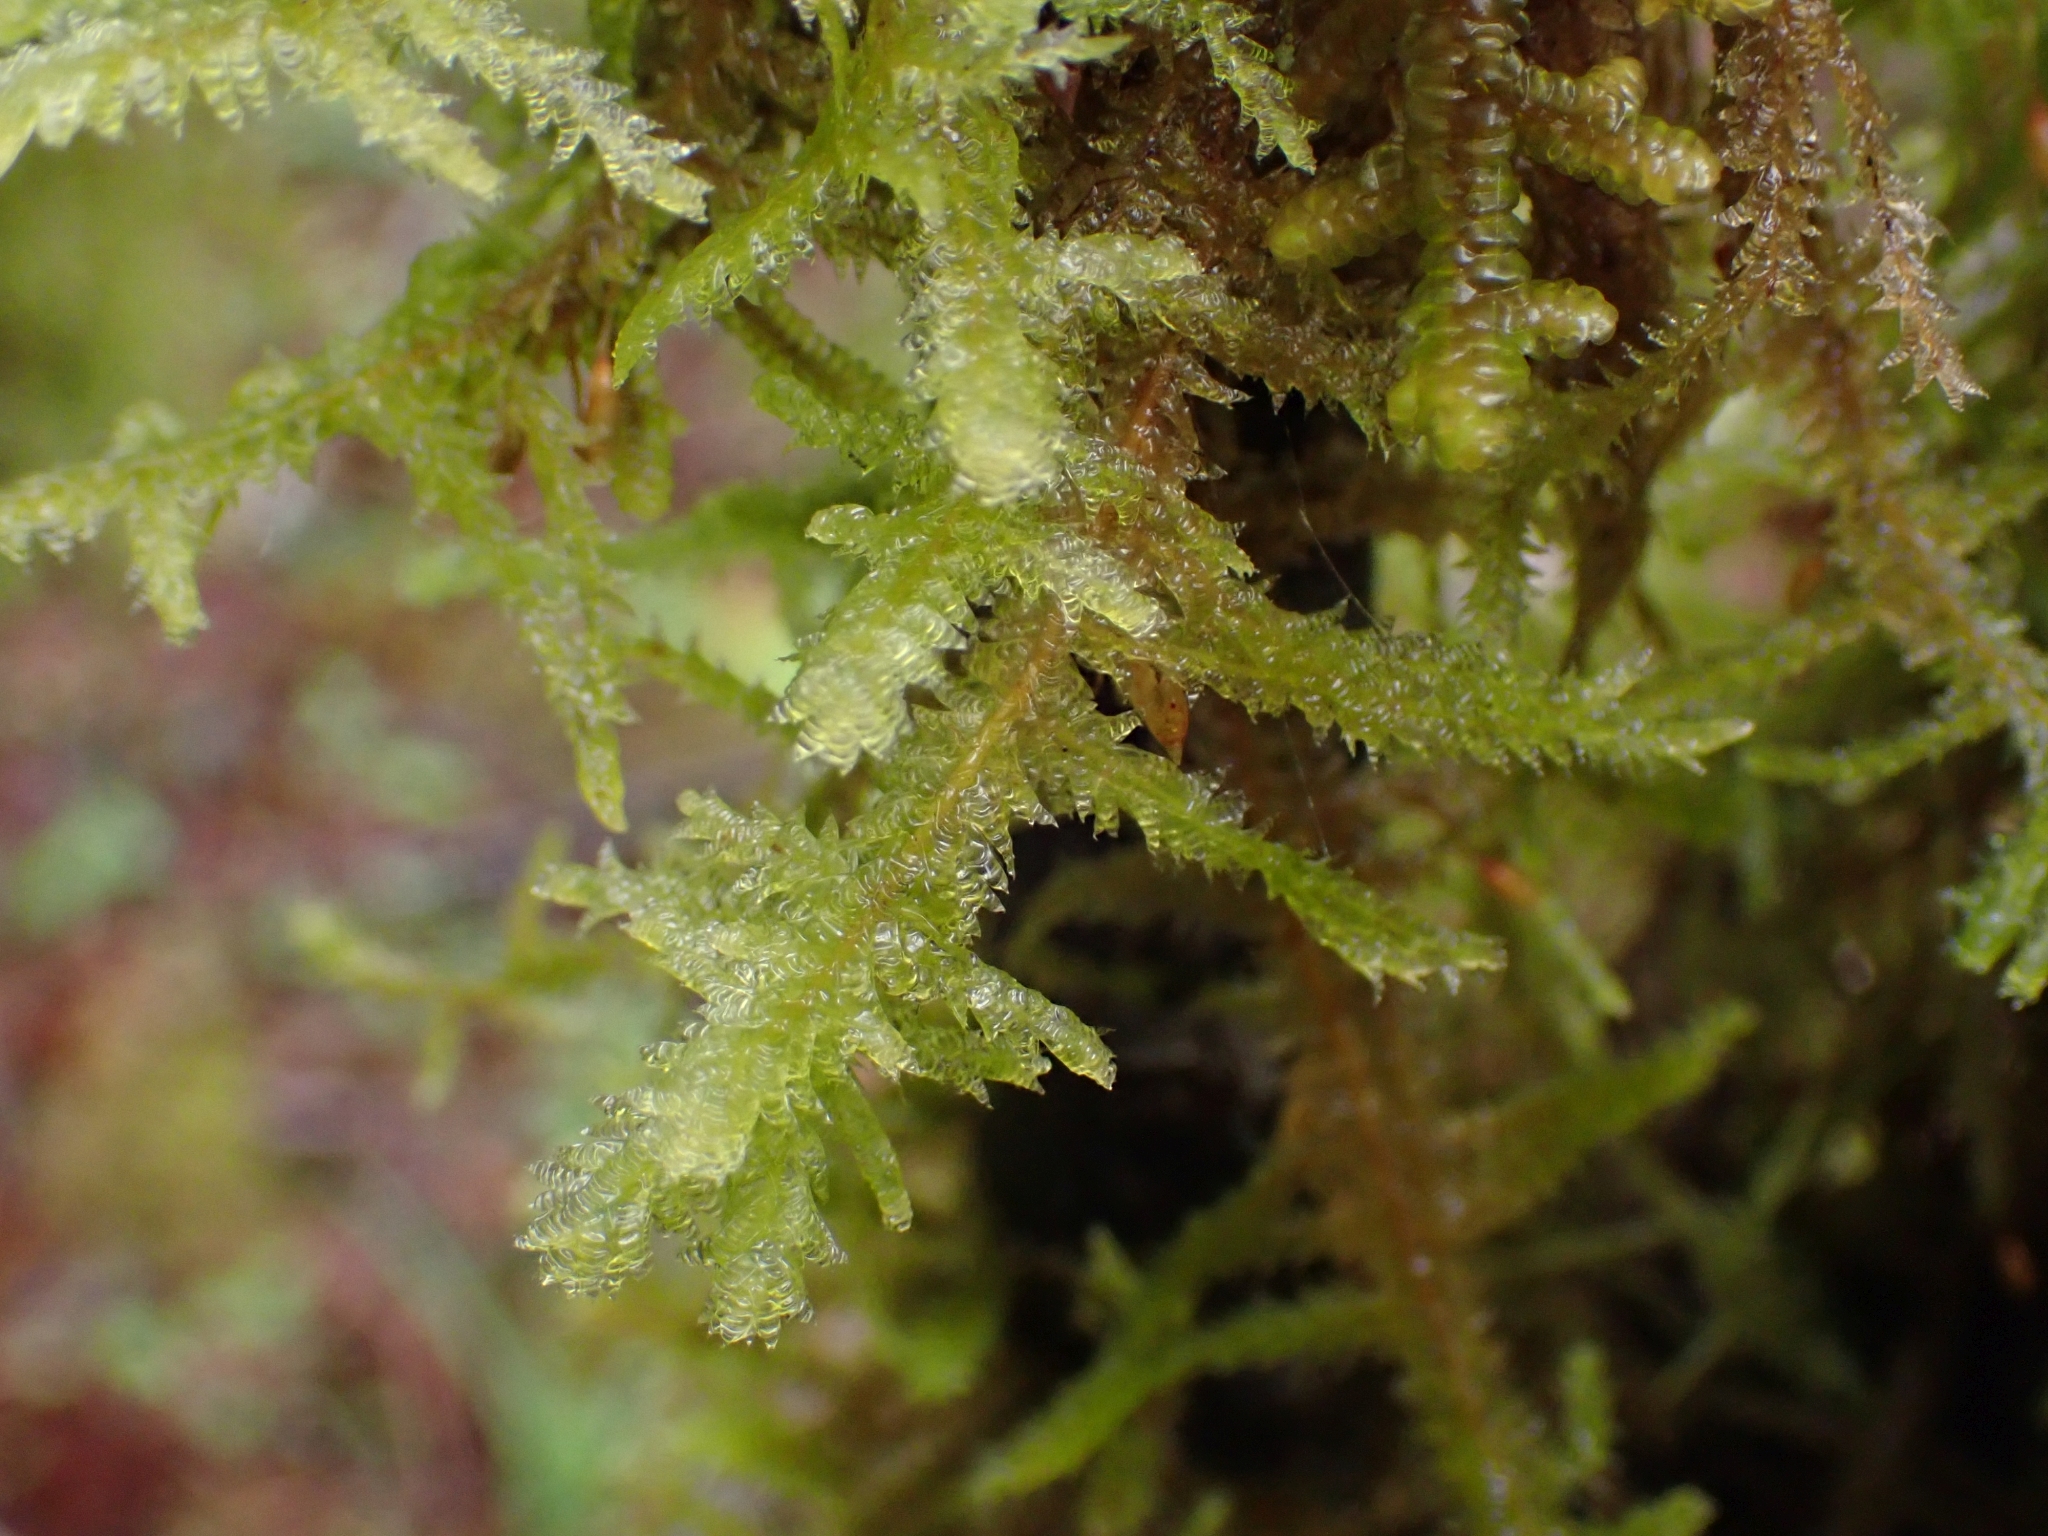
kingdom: Plantae
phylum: Bryophyta
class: Bryopsida
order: Hypnales
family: Neckeraceae
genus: Neckera
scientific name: Neckera douglasii
